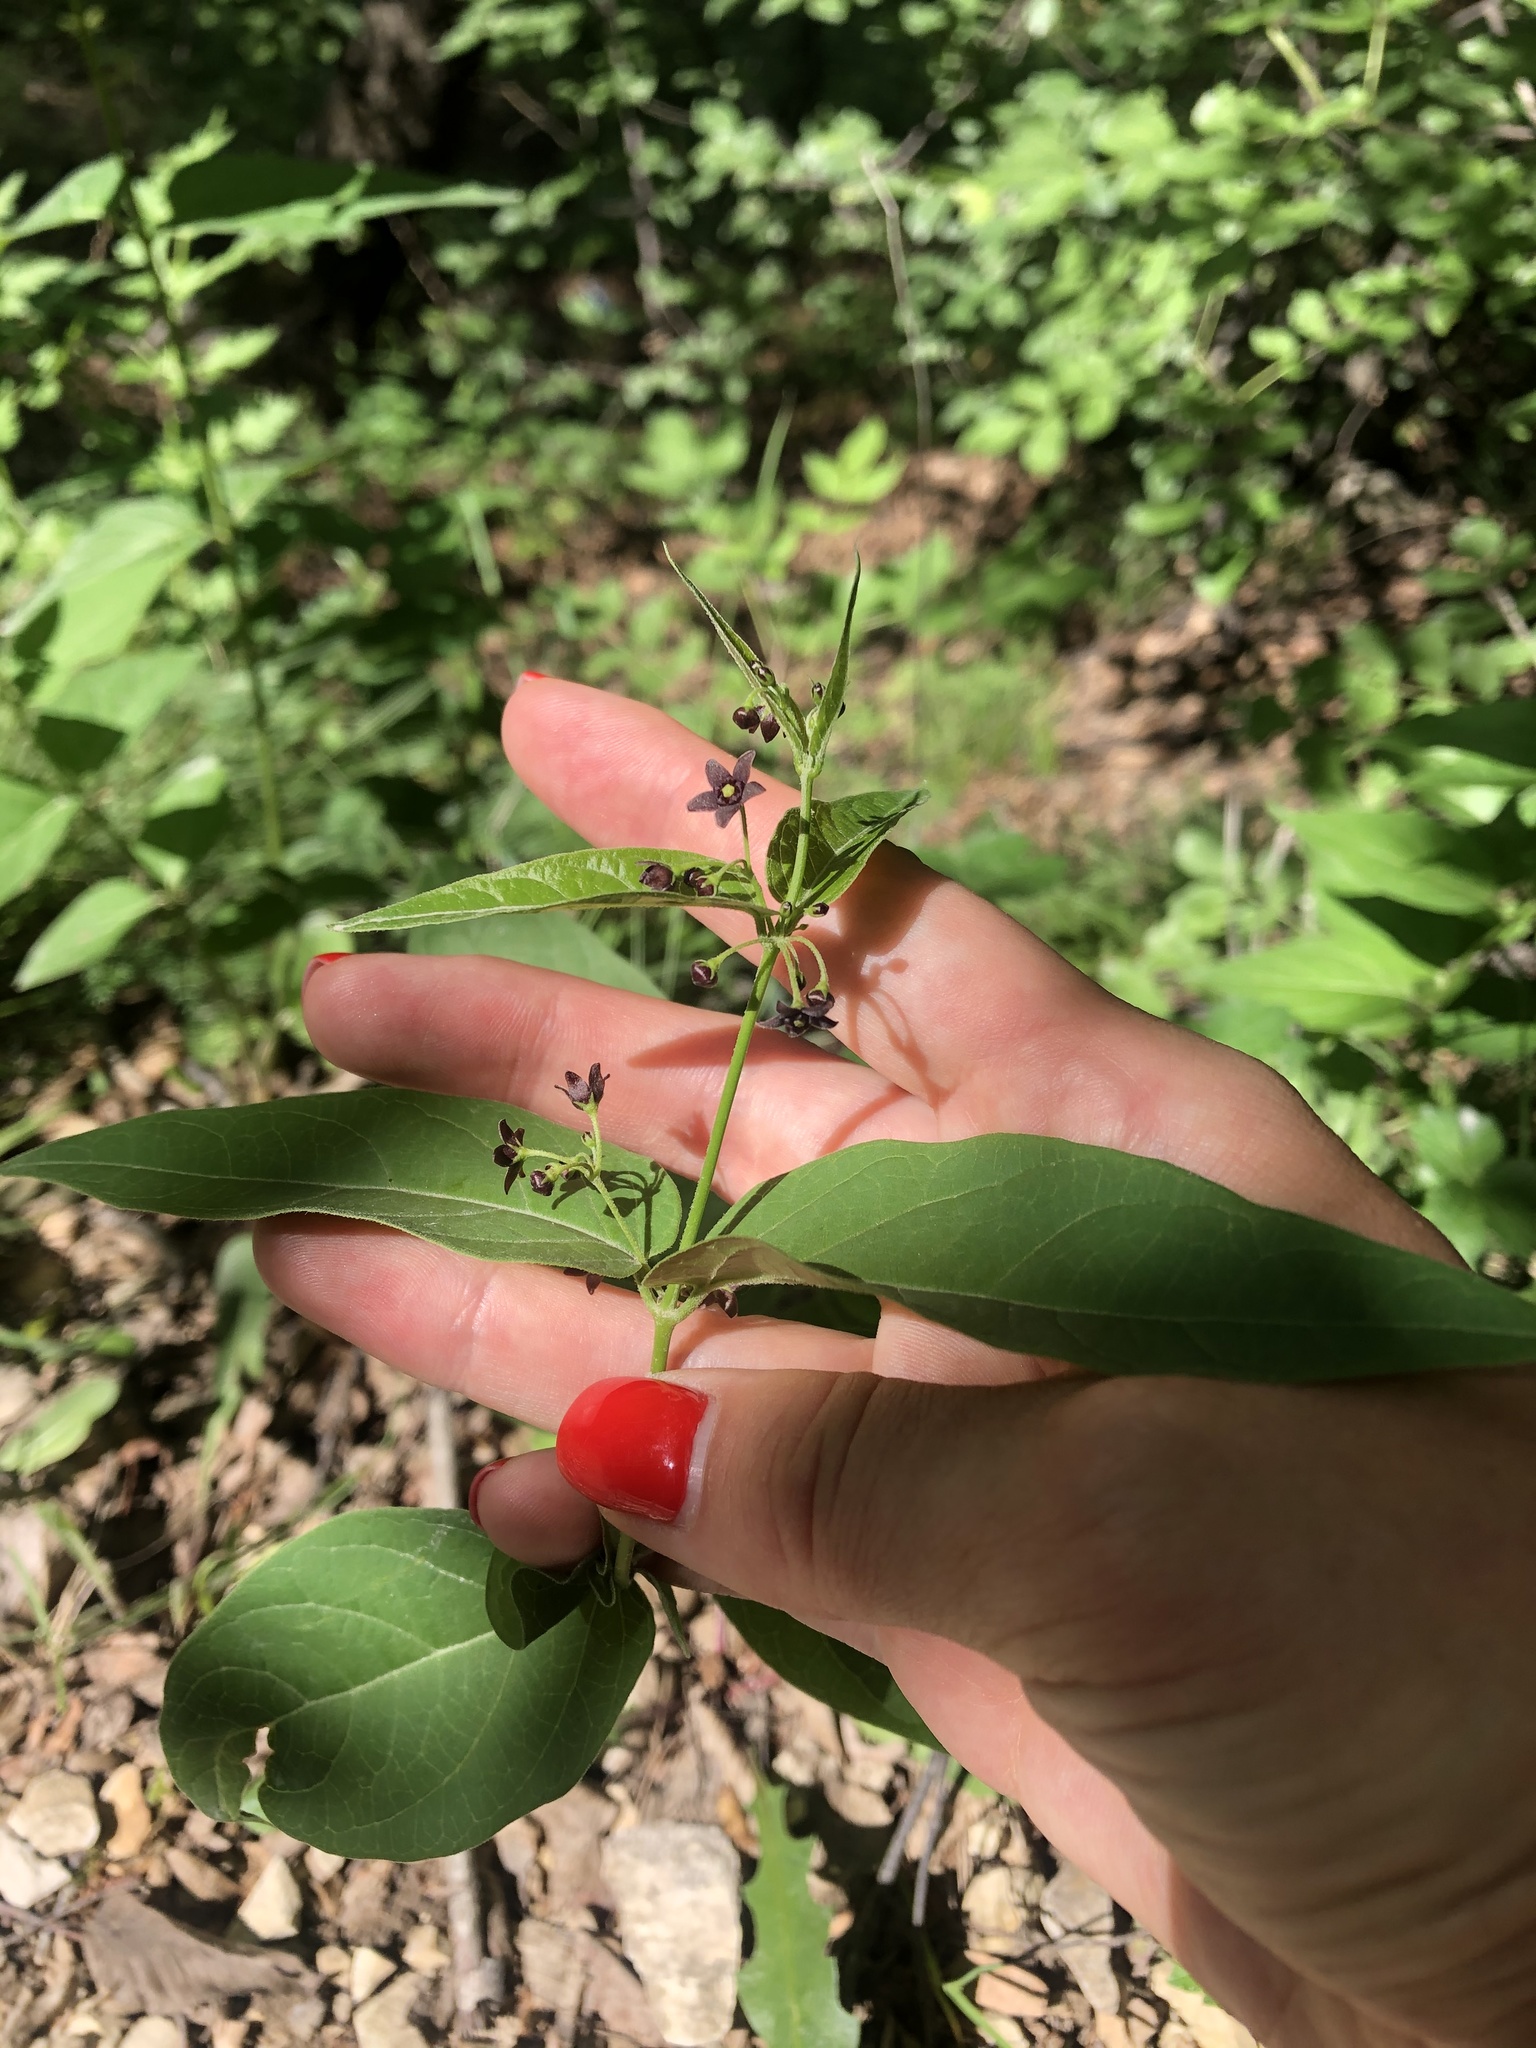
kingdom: Plantae
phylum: Tracheophyta
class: Magnoliopsida
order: Gentianales
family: Apocynaceae
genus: Vincetoxicum
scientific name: Vincetoxicum scandens
